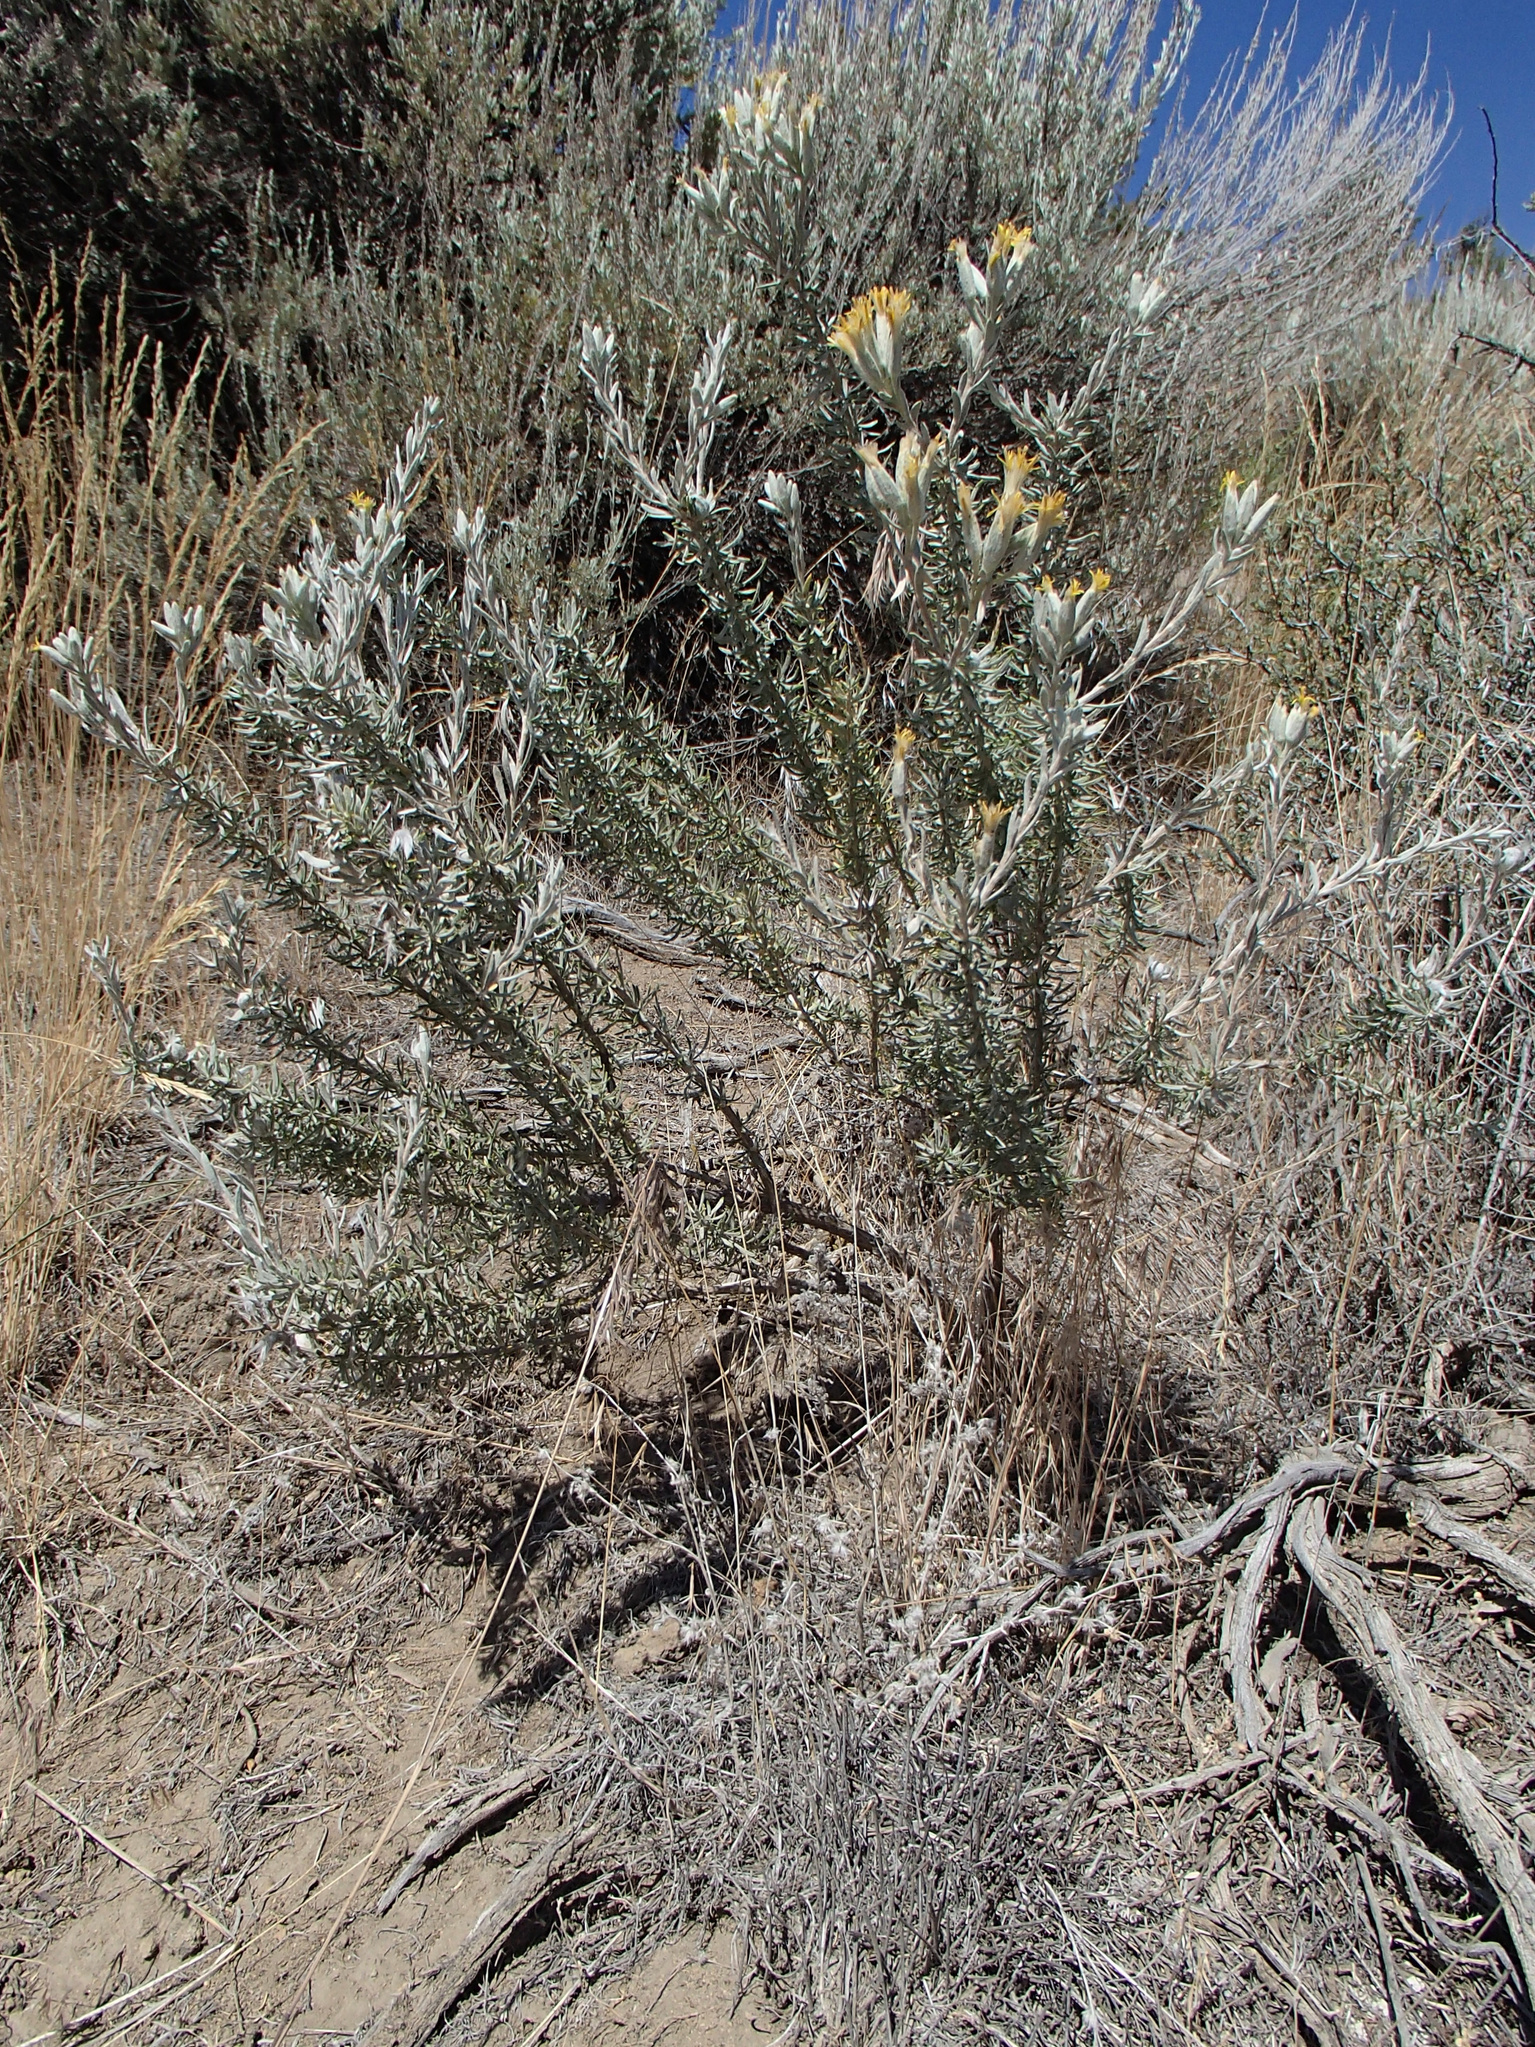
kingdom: Plantae
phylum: Tracheophyta
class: Magnoliopsida
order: Asterales
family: Asteraceae
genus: Tetradymia
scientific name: Tetradymia canescens
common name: Spineless horsebrush
